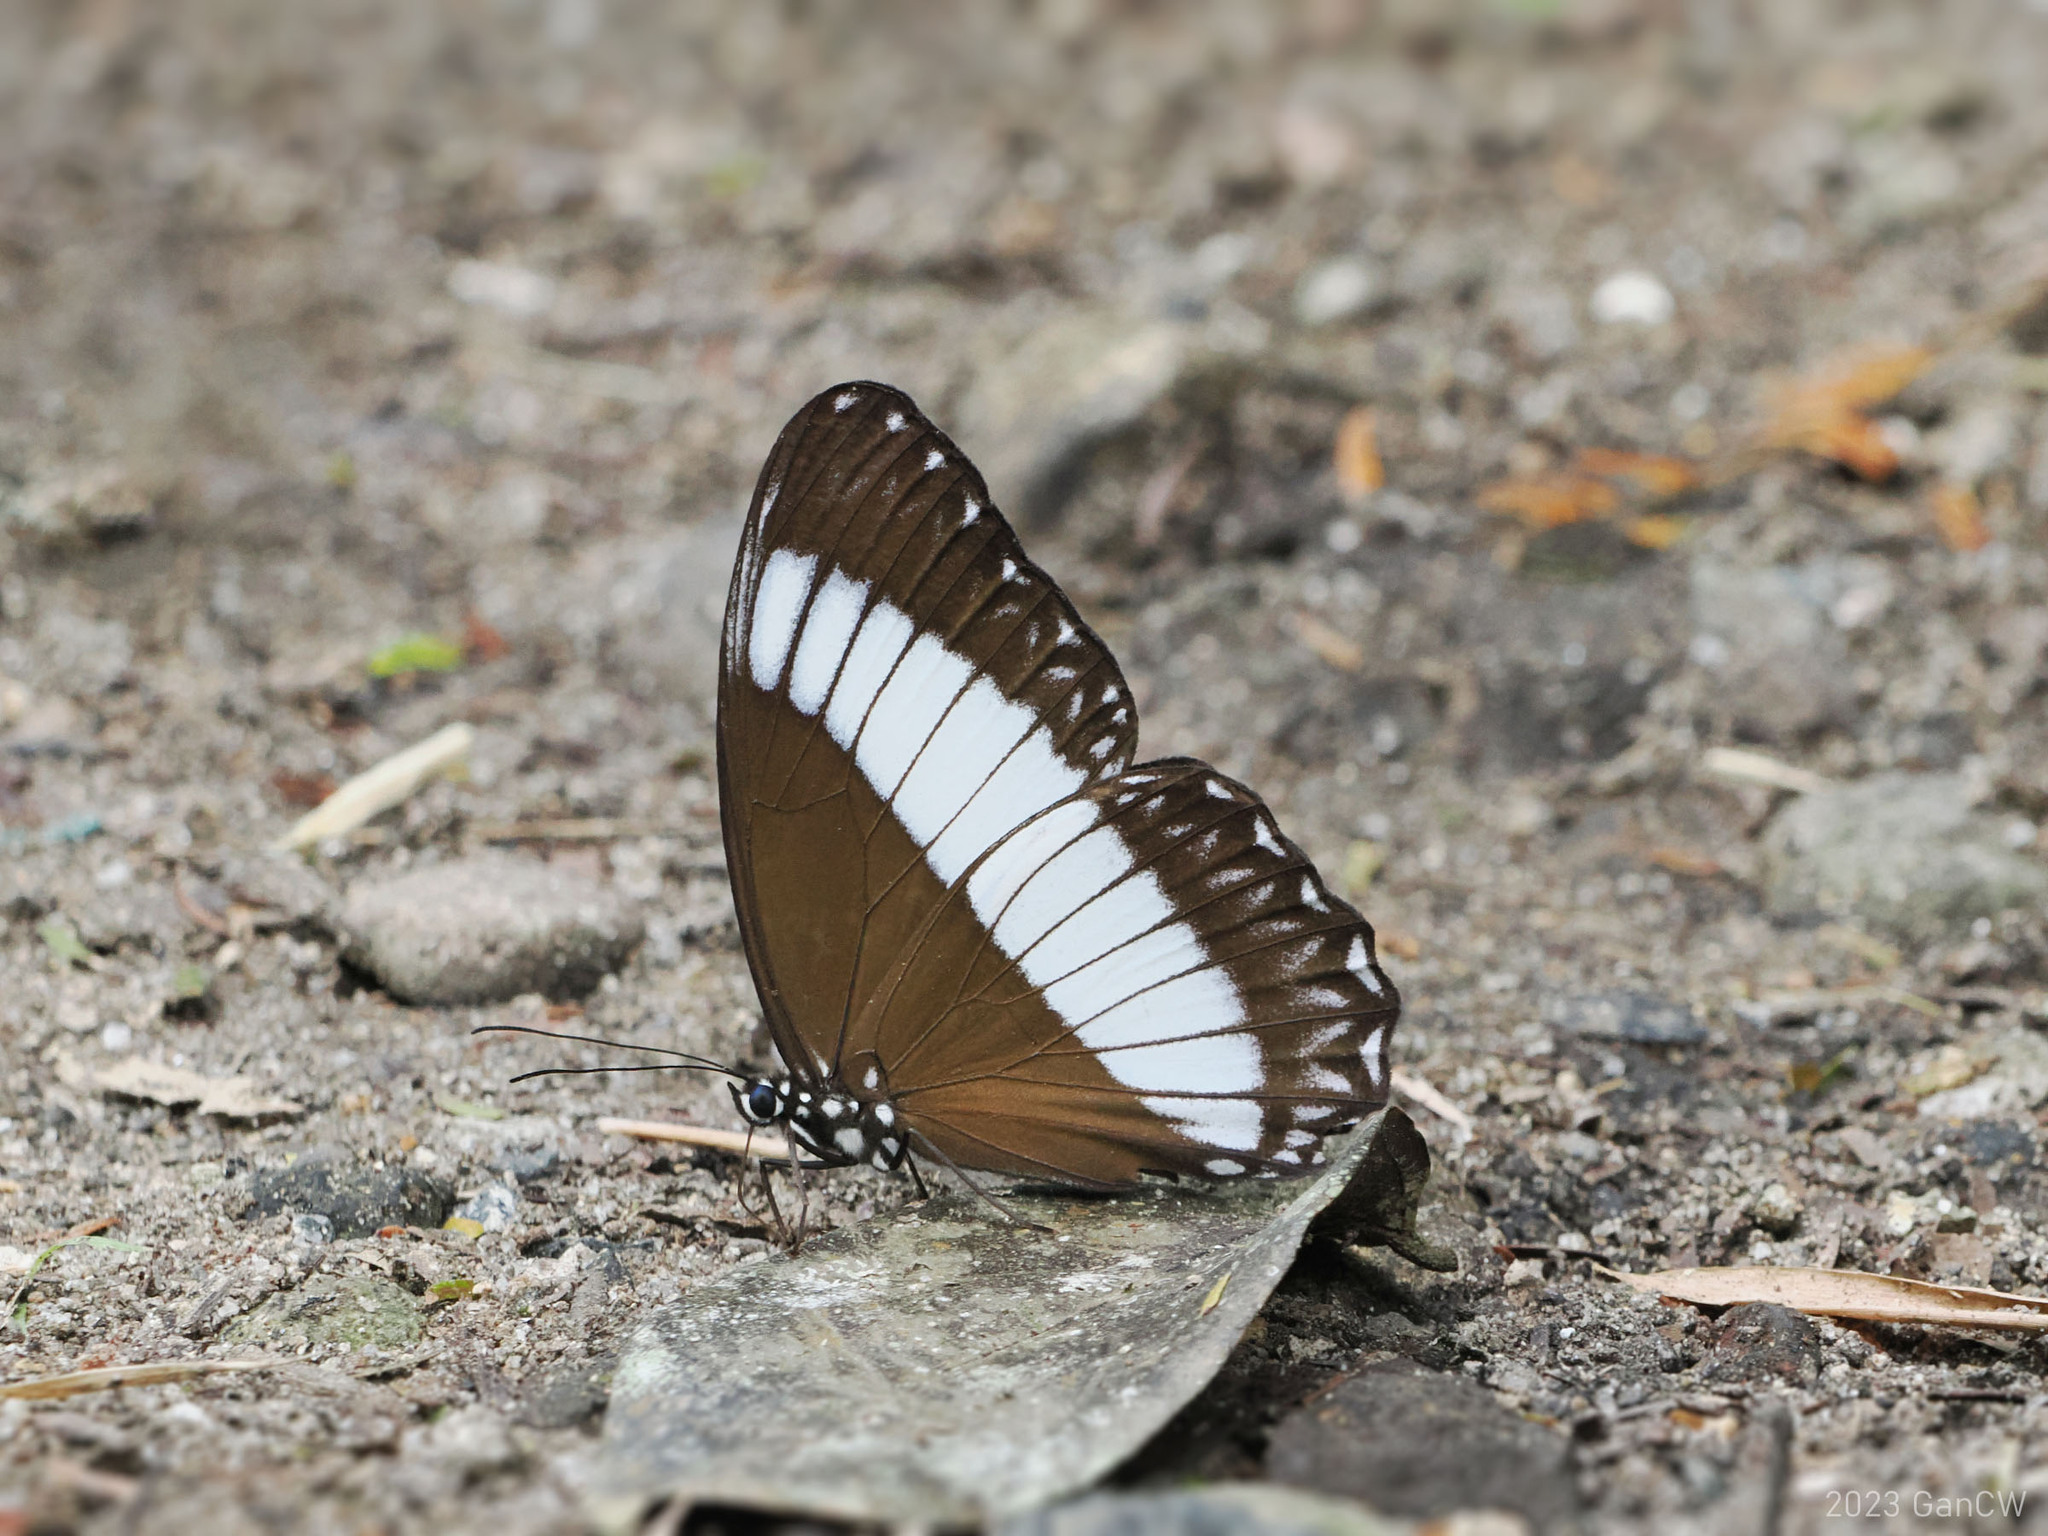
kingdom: Animalia
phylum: Arthropoda
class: Insecta
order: Lepidoptera
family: Nymphalidae
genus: Zethera
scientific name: Zethera pimplea
